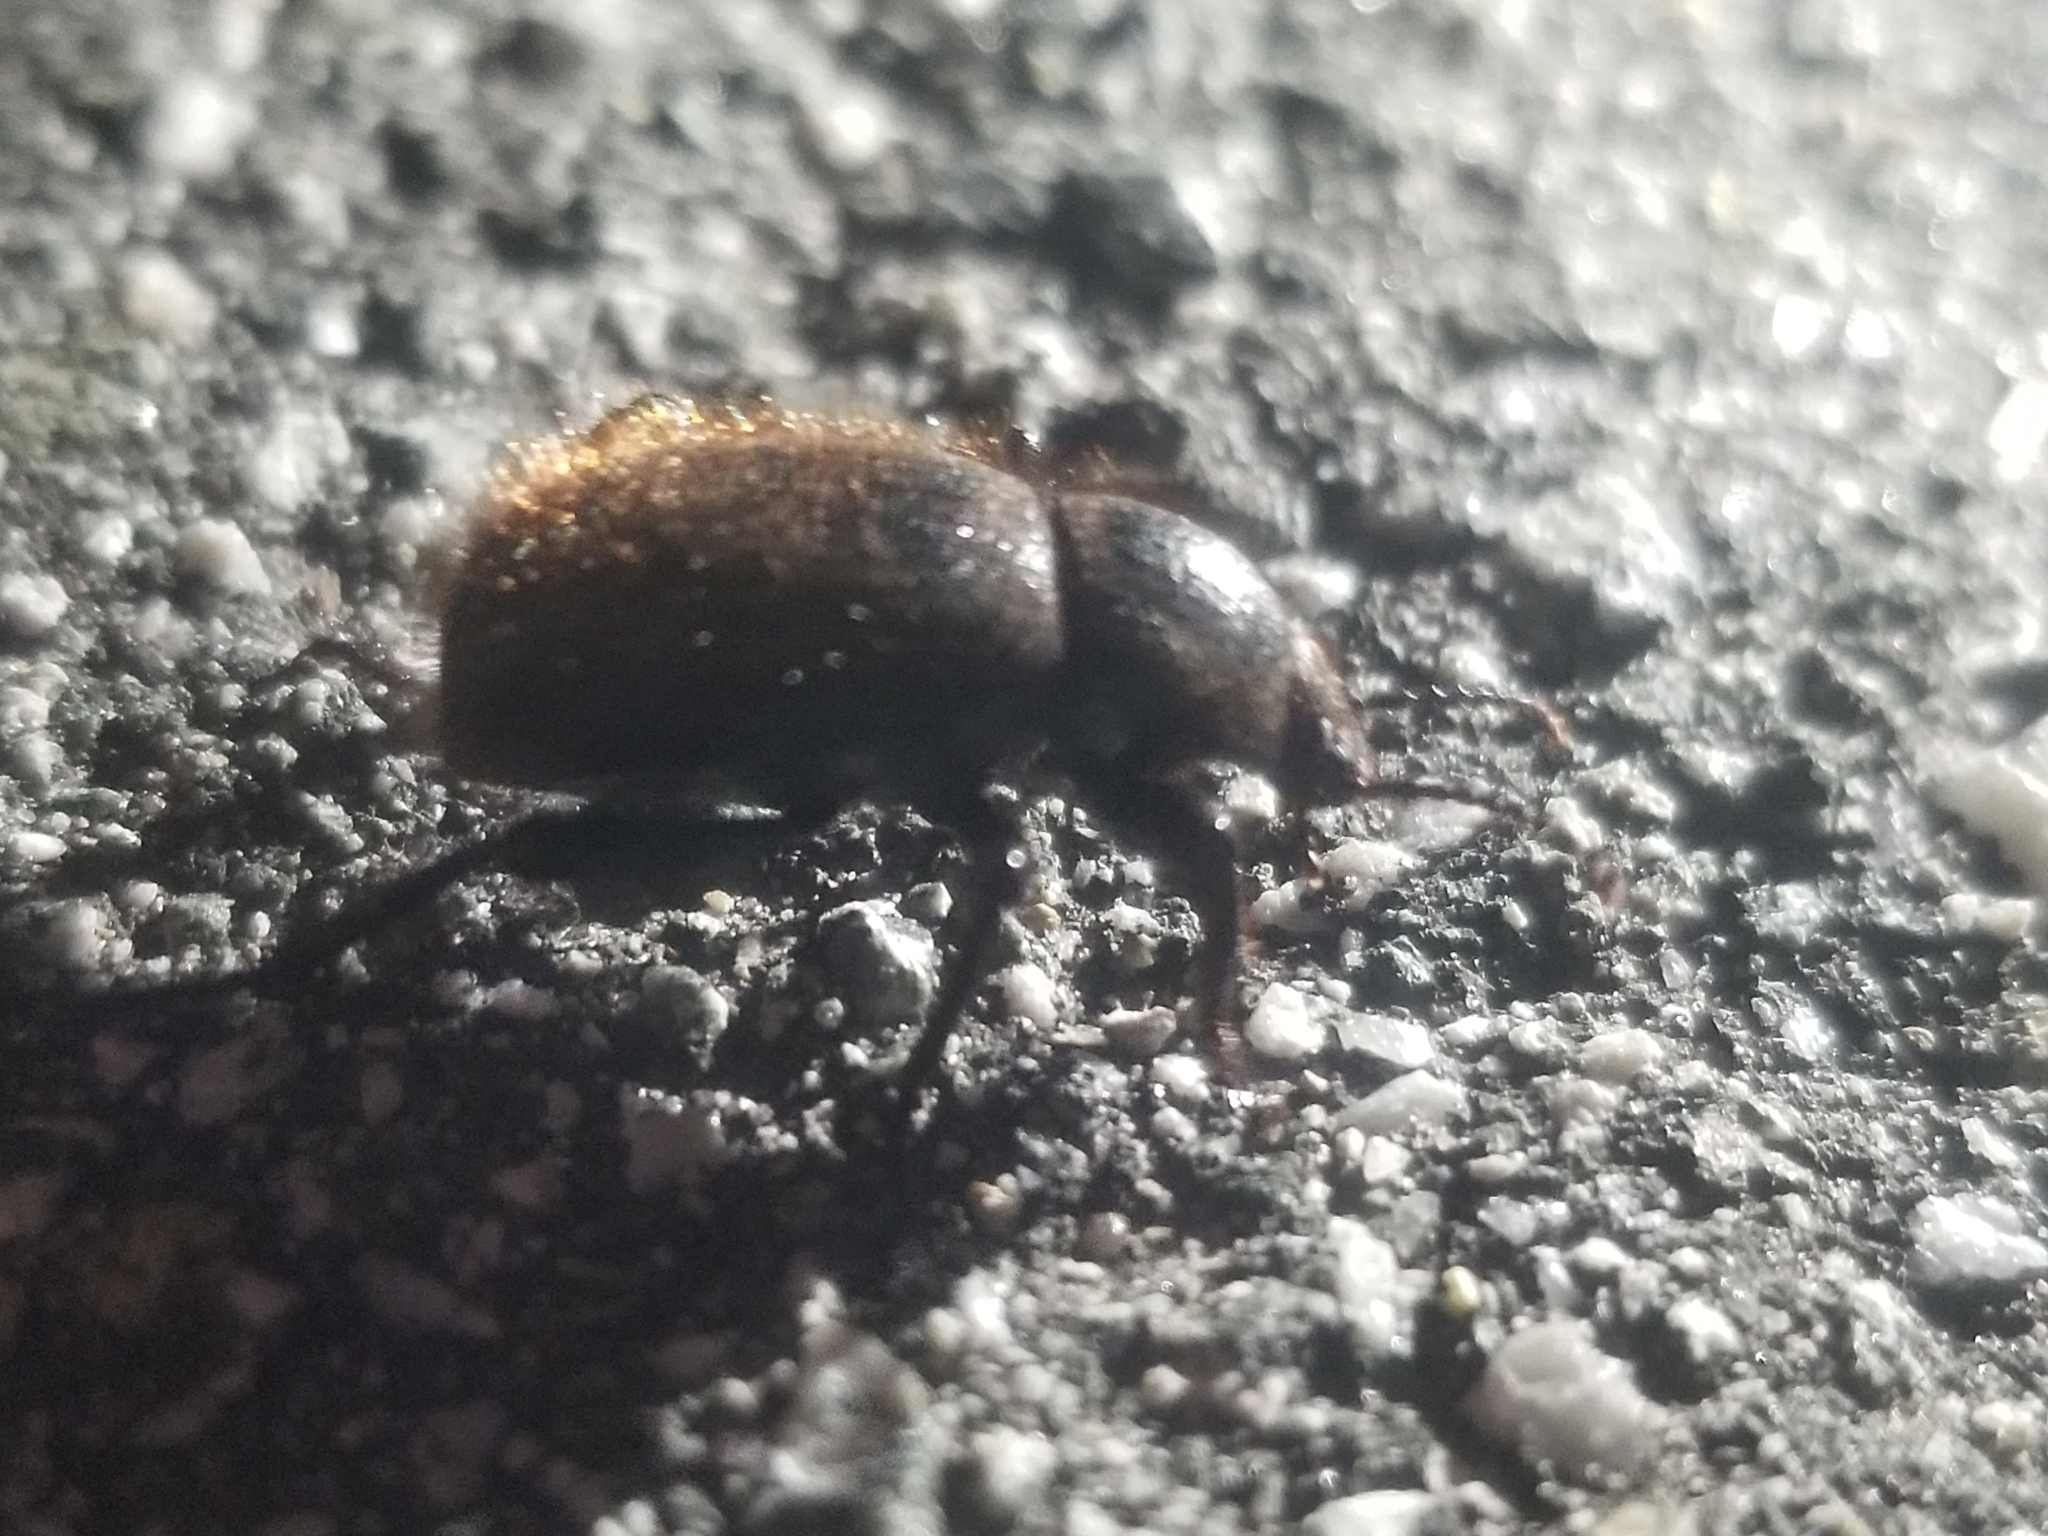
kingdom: Animalia
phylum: Arthropoda
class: Insecta
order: Coleoptera
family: Tenebrionidae
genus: Eleodes
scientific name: Eleodes osculans
